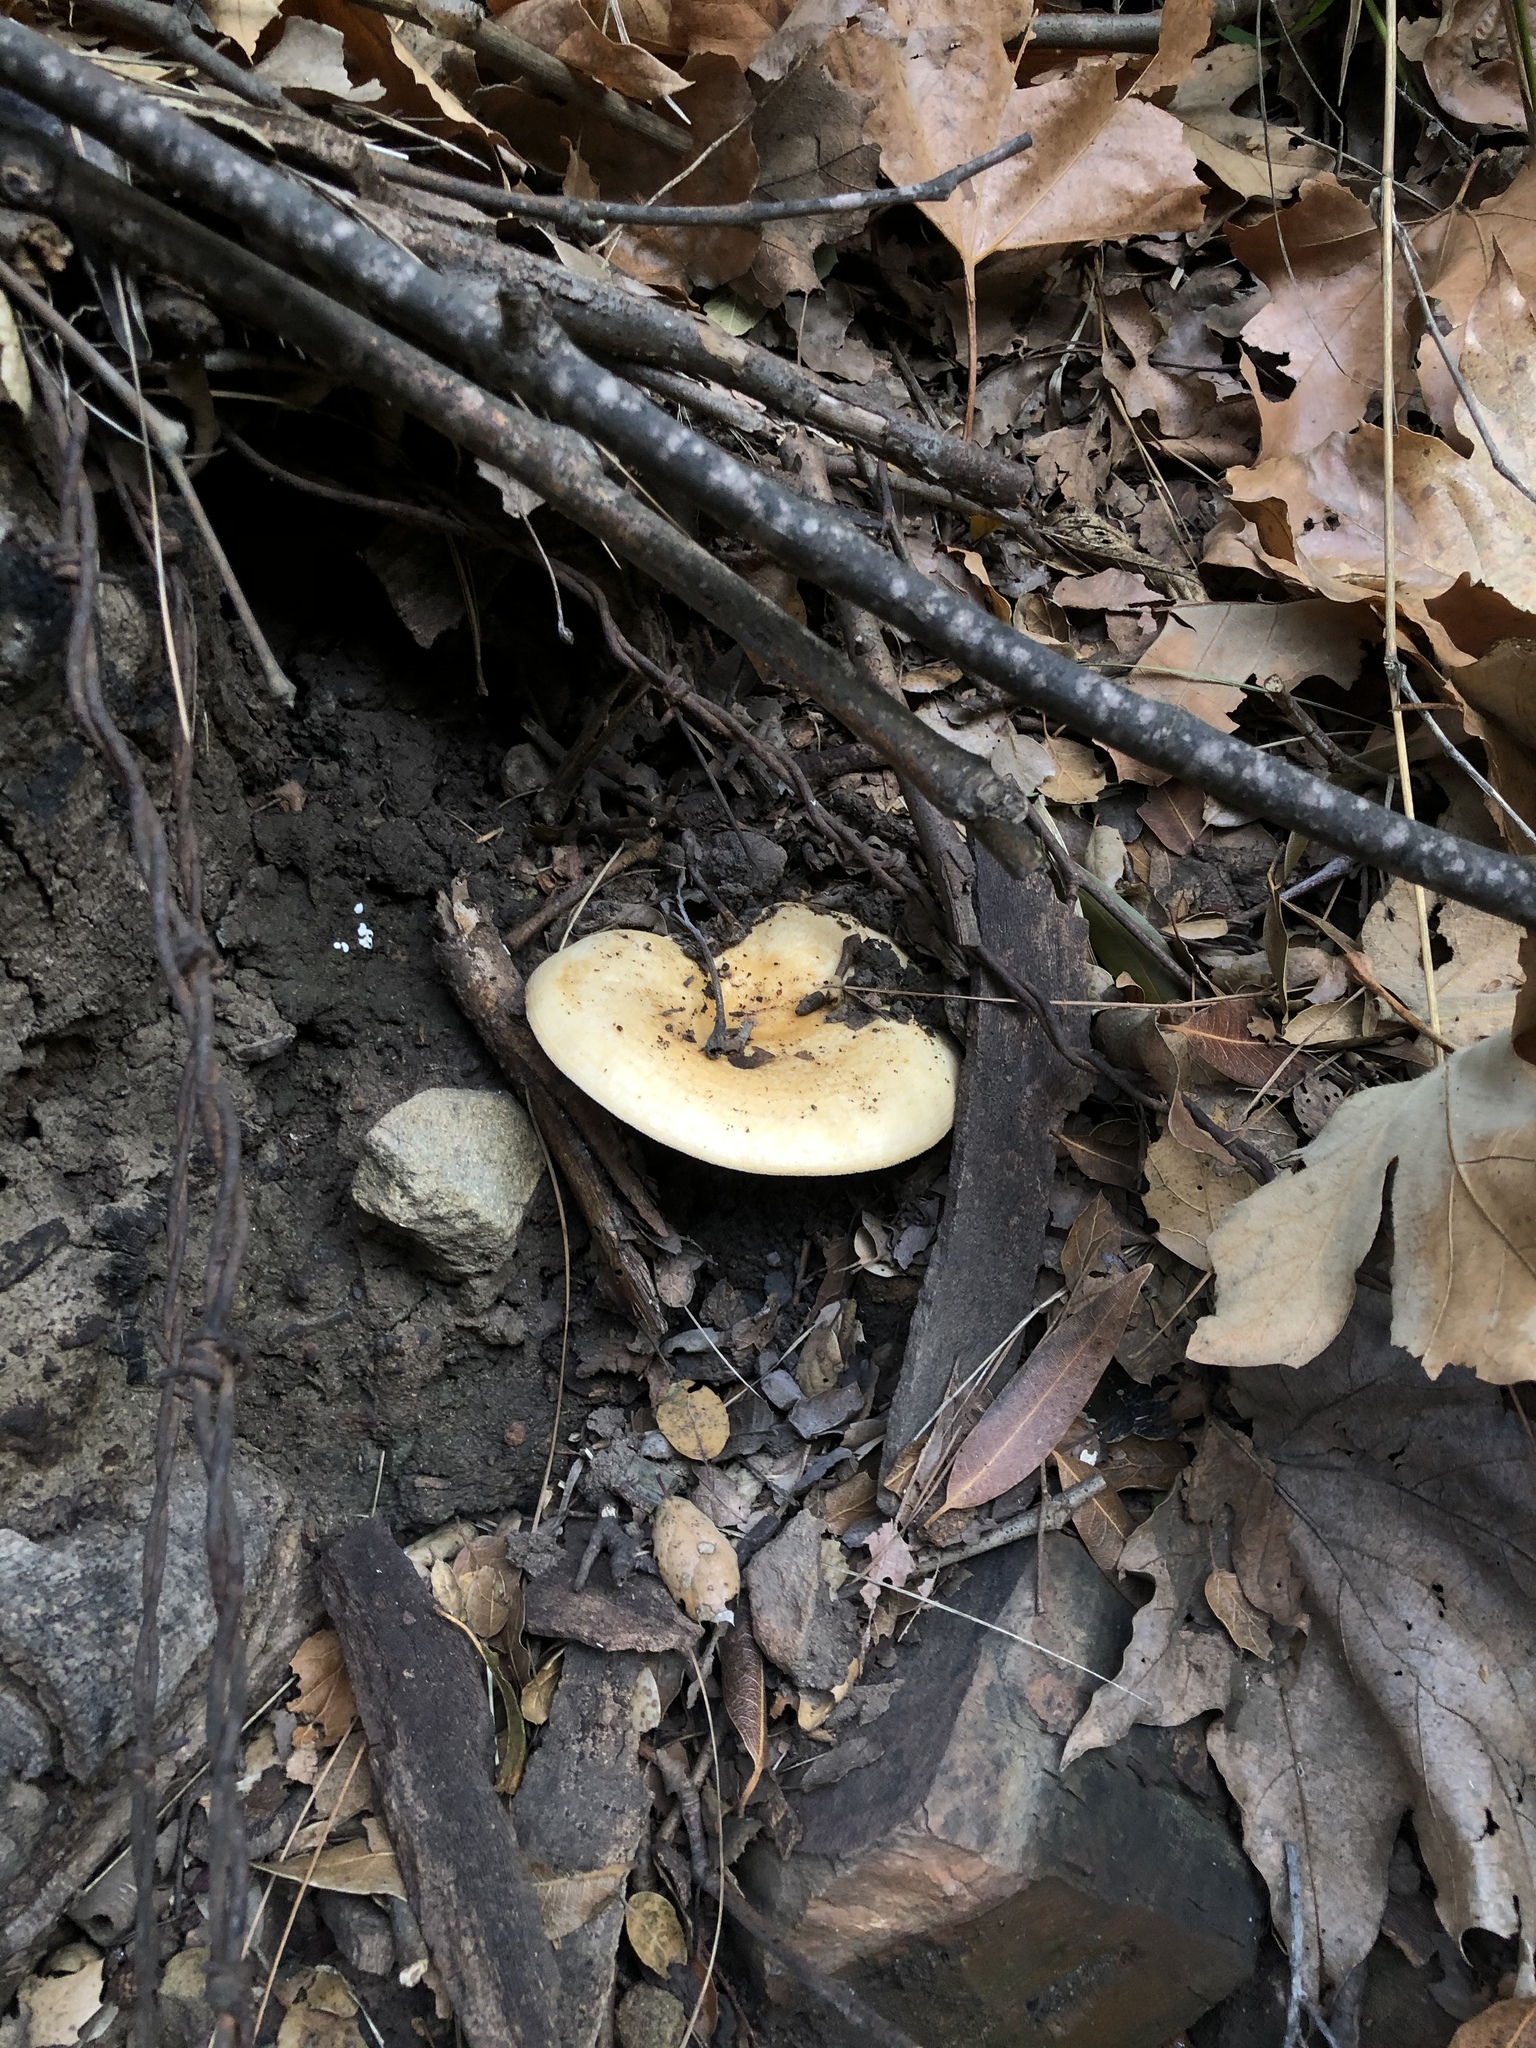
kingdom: Fungi
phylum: Basidiomycota
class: Agaricomycetes
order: Russulales
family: Russulaceae
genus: Lactarius
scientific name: Lactarius alnicola
